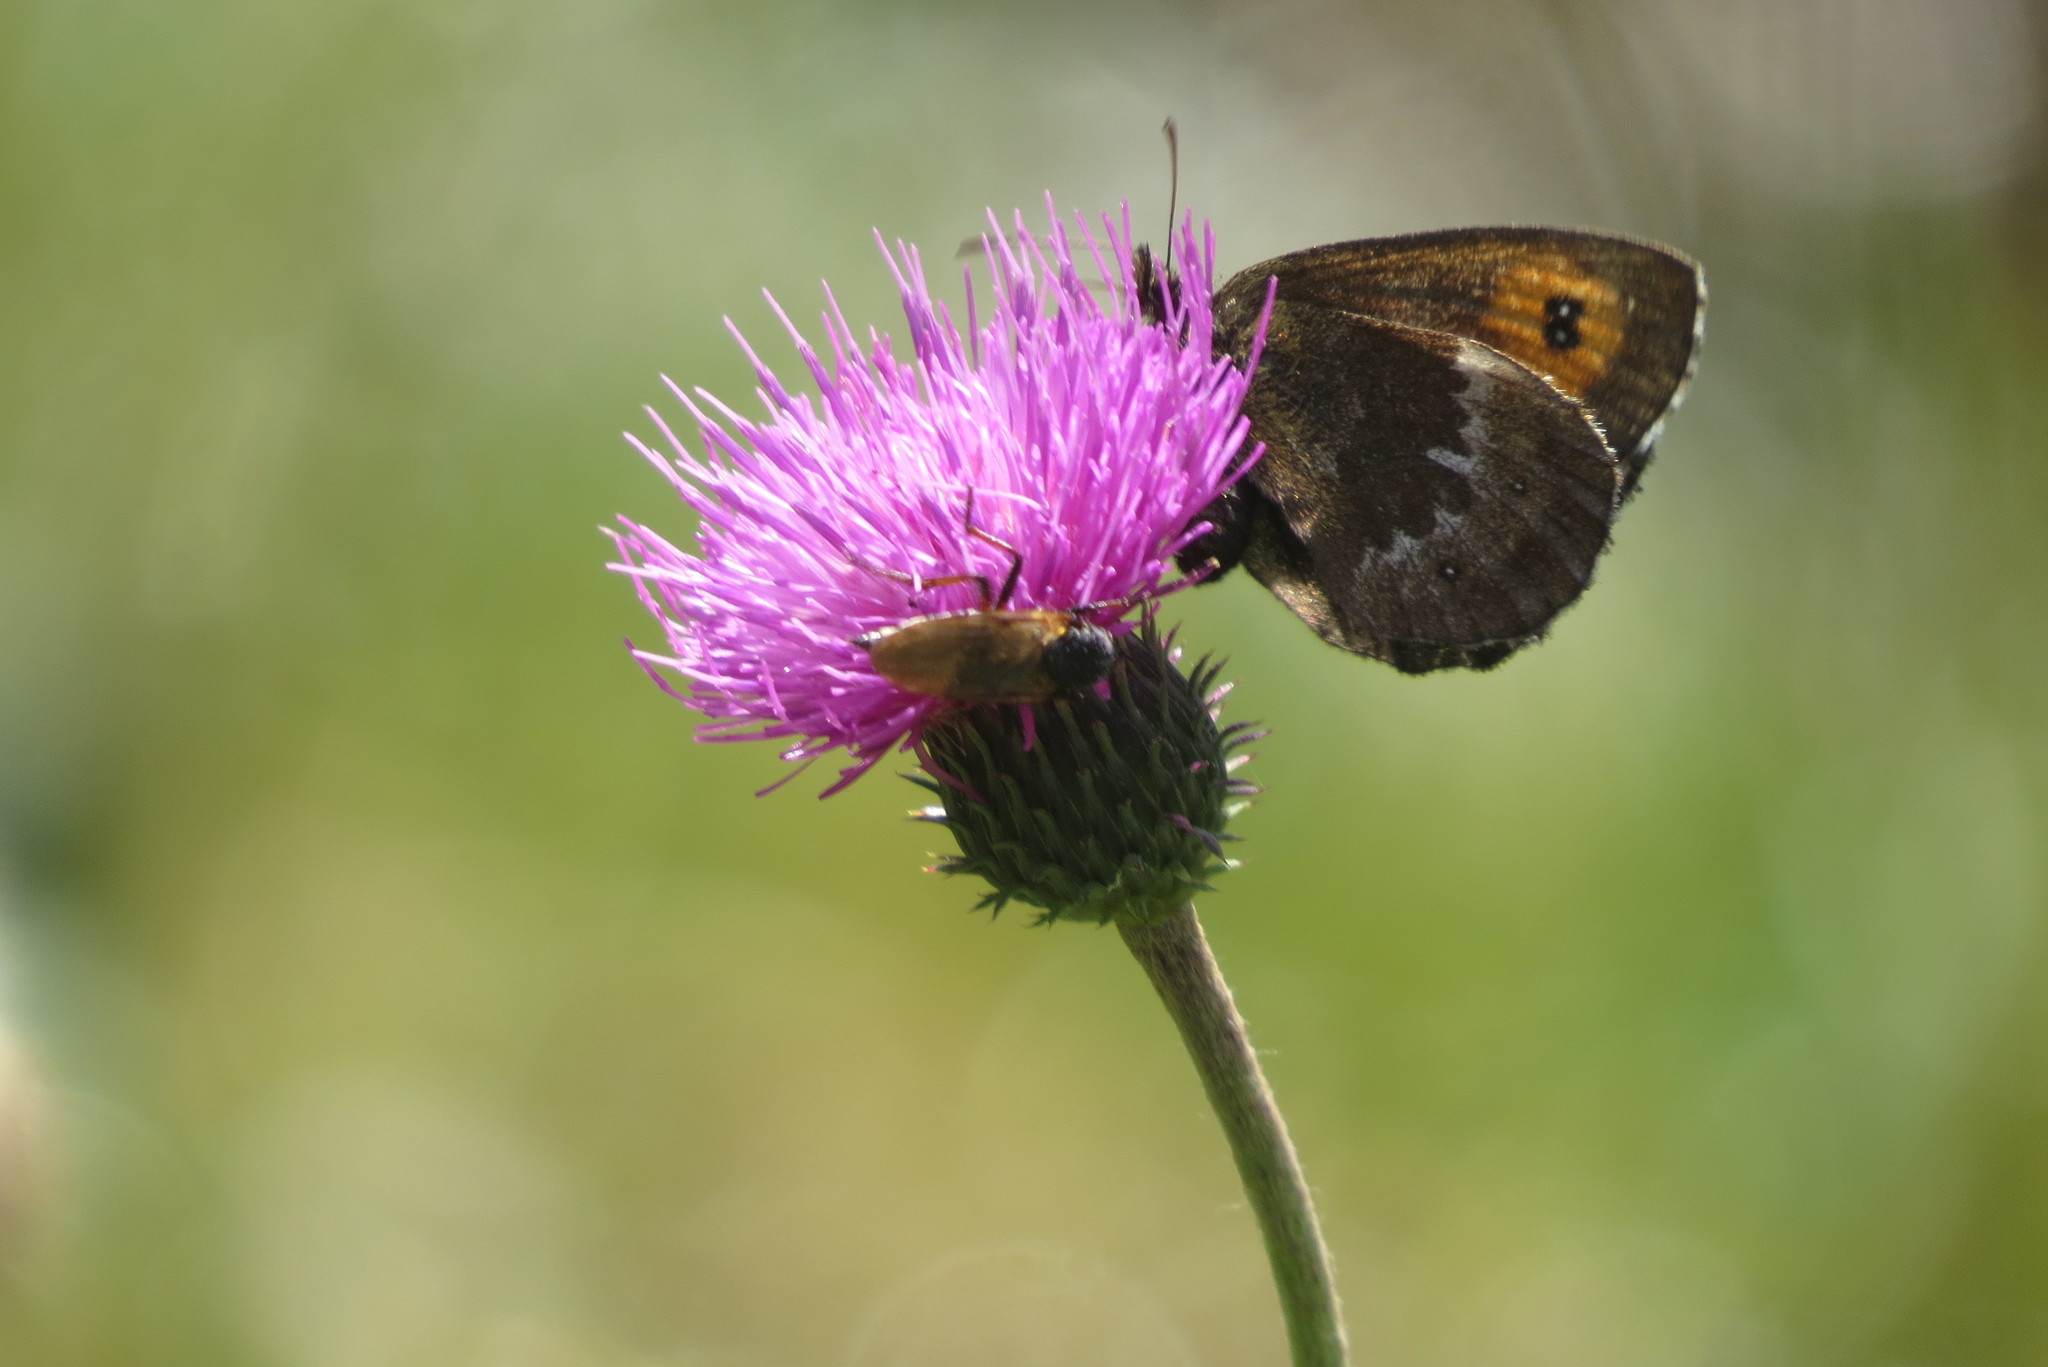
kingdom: Animalia
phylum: Arthropoda
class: Insecta
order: Lepidoptera
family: Nymphalidae
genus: Erebia
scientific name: Erebia euryale
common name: Large ringlet
